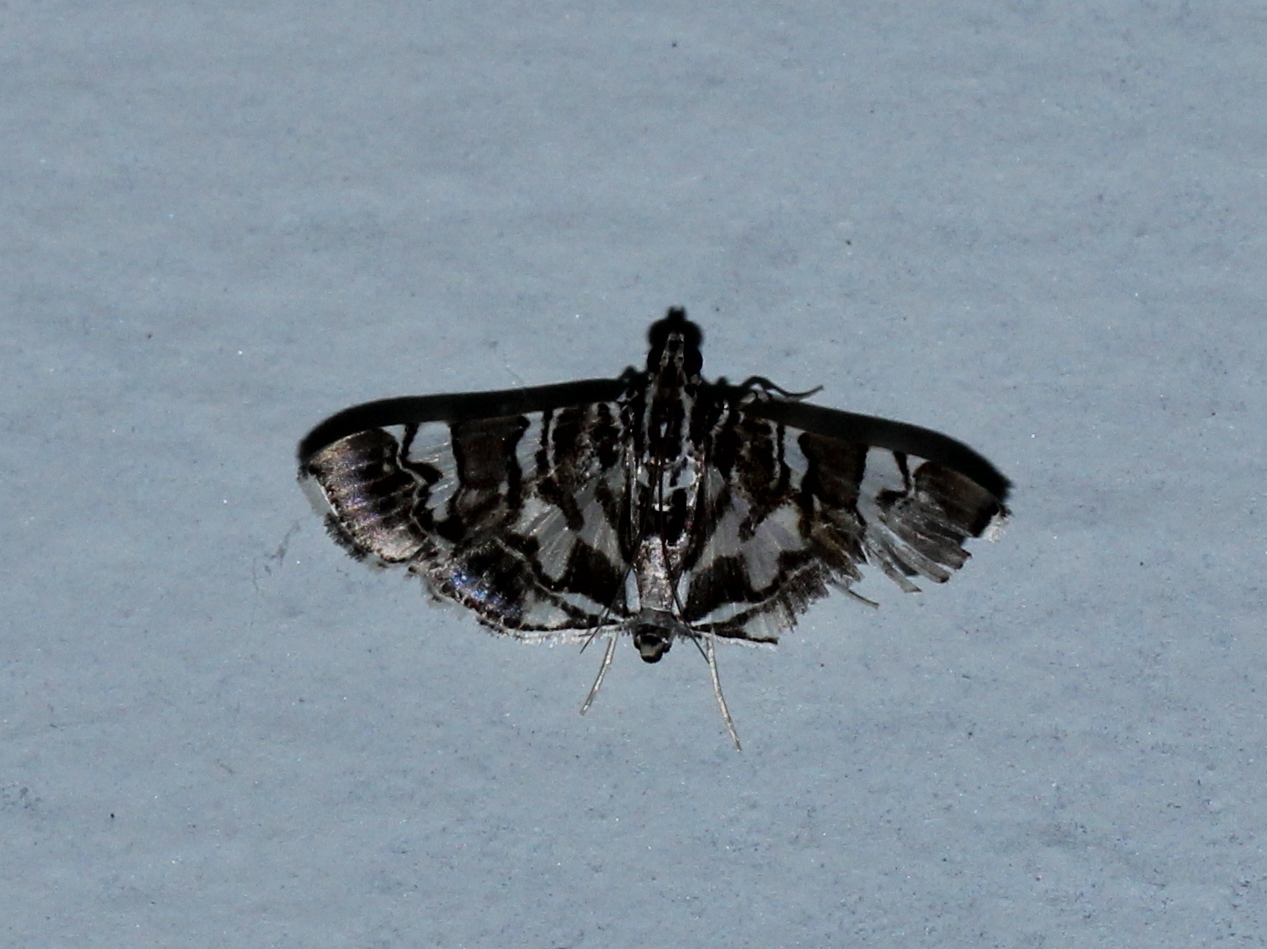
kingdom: Animalia
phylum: Arthropoda
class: Insecta
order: Lepidoptera
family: Crambidae
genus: Chabula
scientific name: Chabula acamasalis
